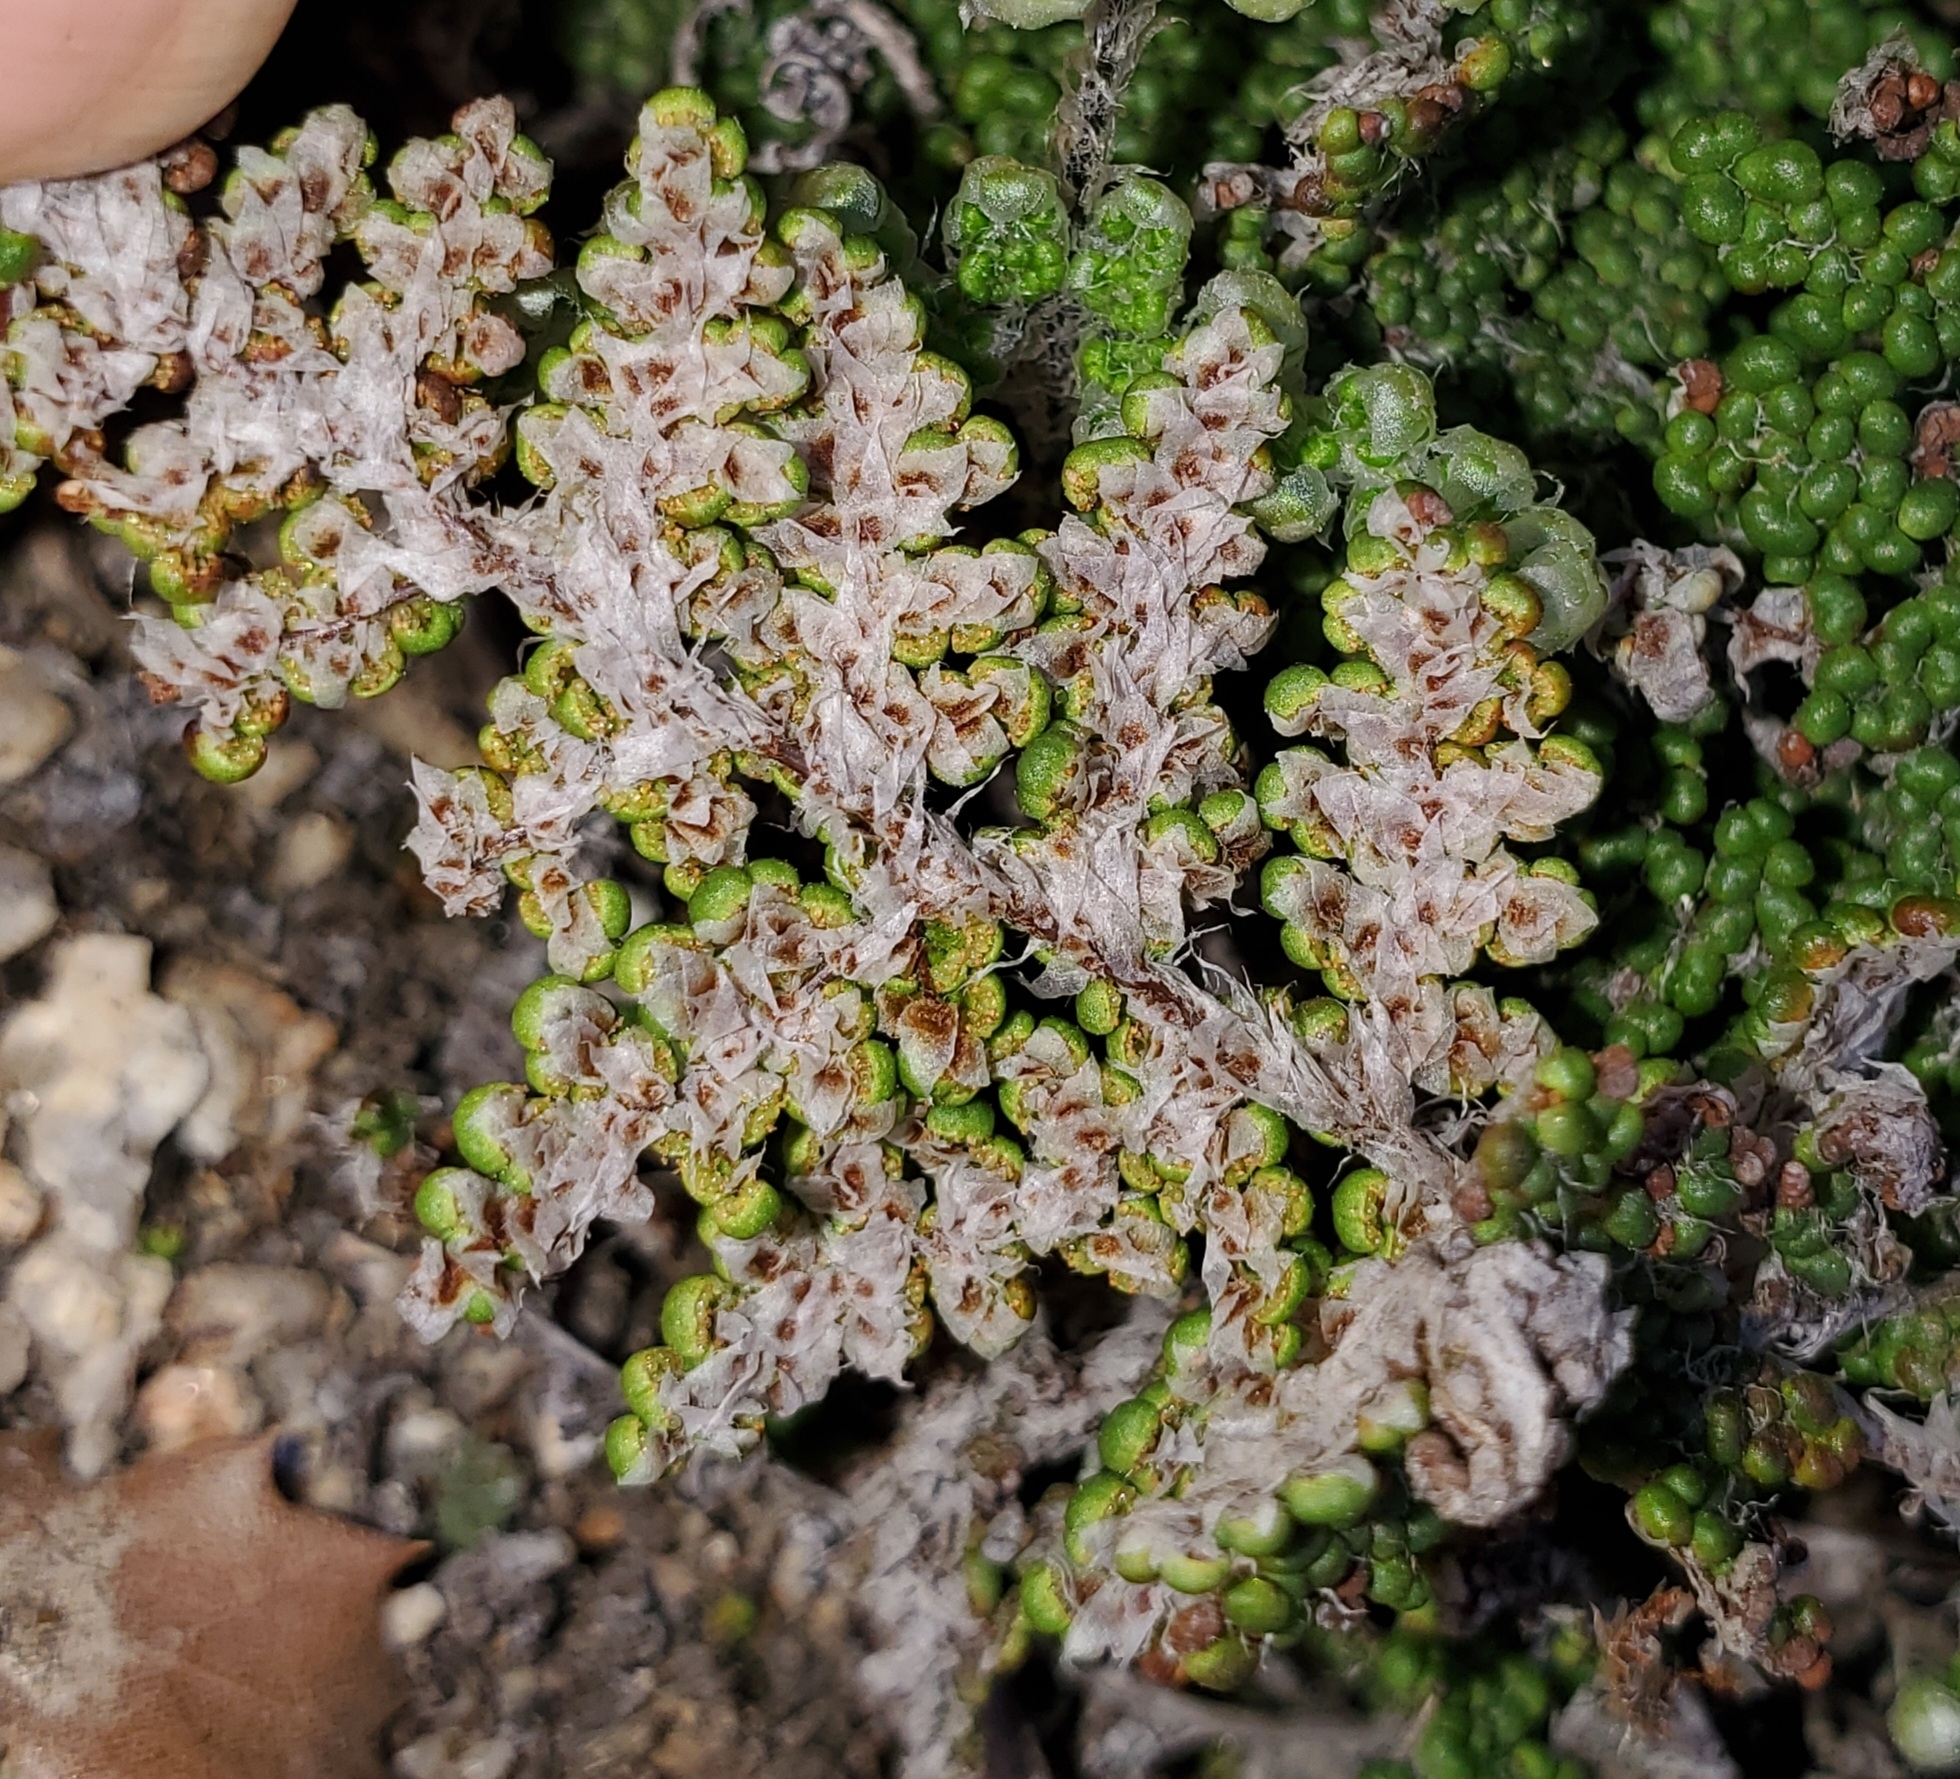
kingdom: Plantae
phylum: Tracheophyta
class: Polypodiopsida
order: Polypodiales
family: Pteridaceae
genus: Myriopteris
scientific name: Myriopteris covillei
